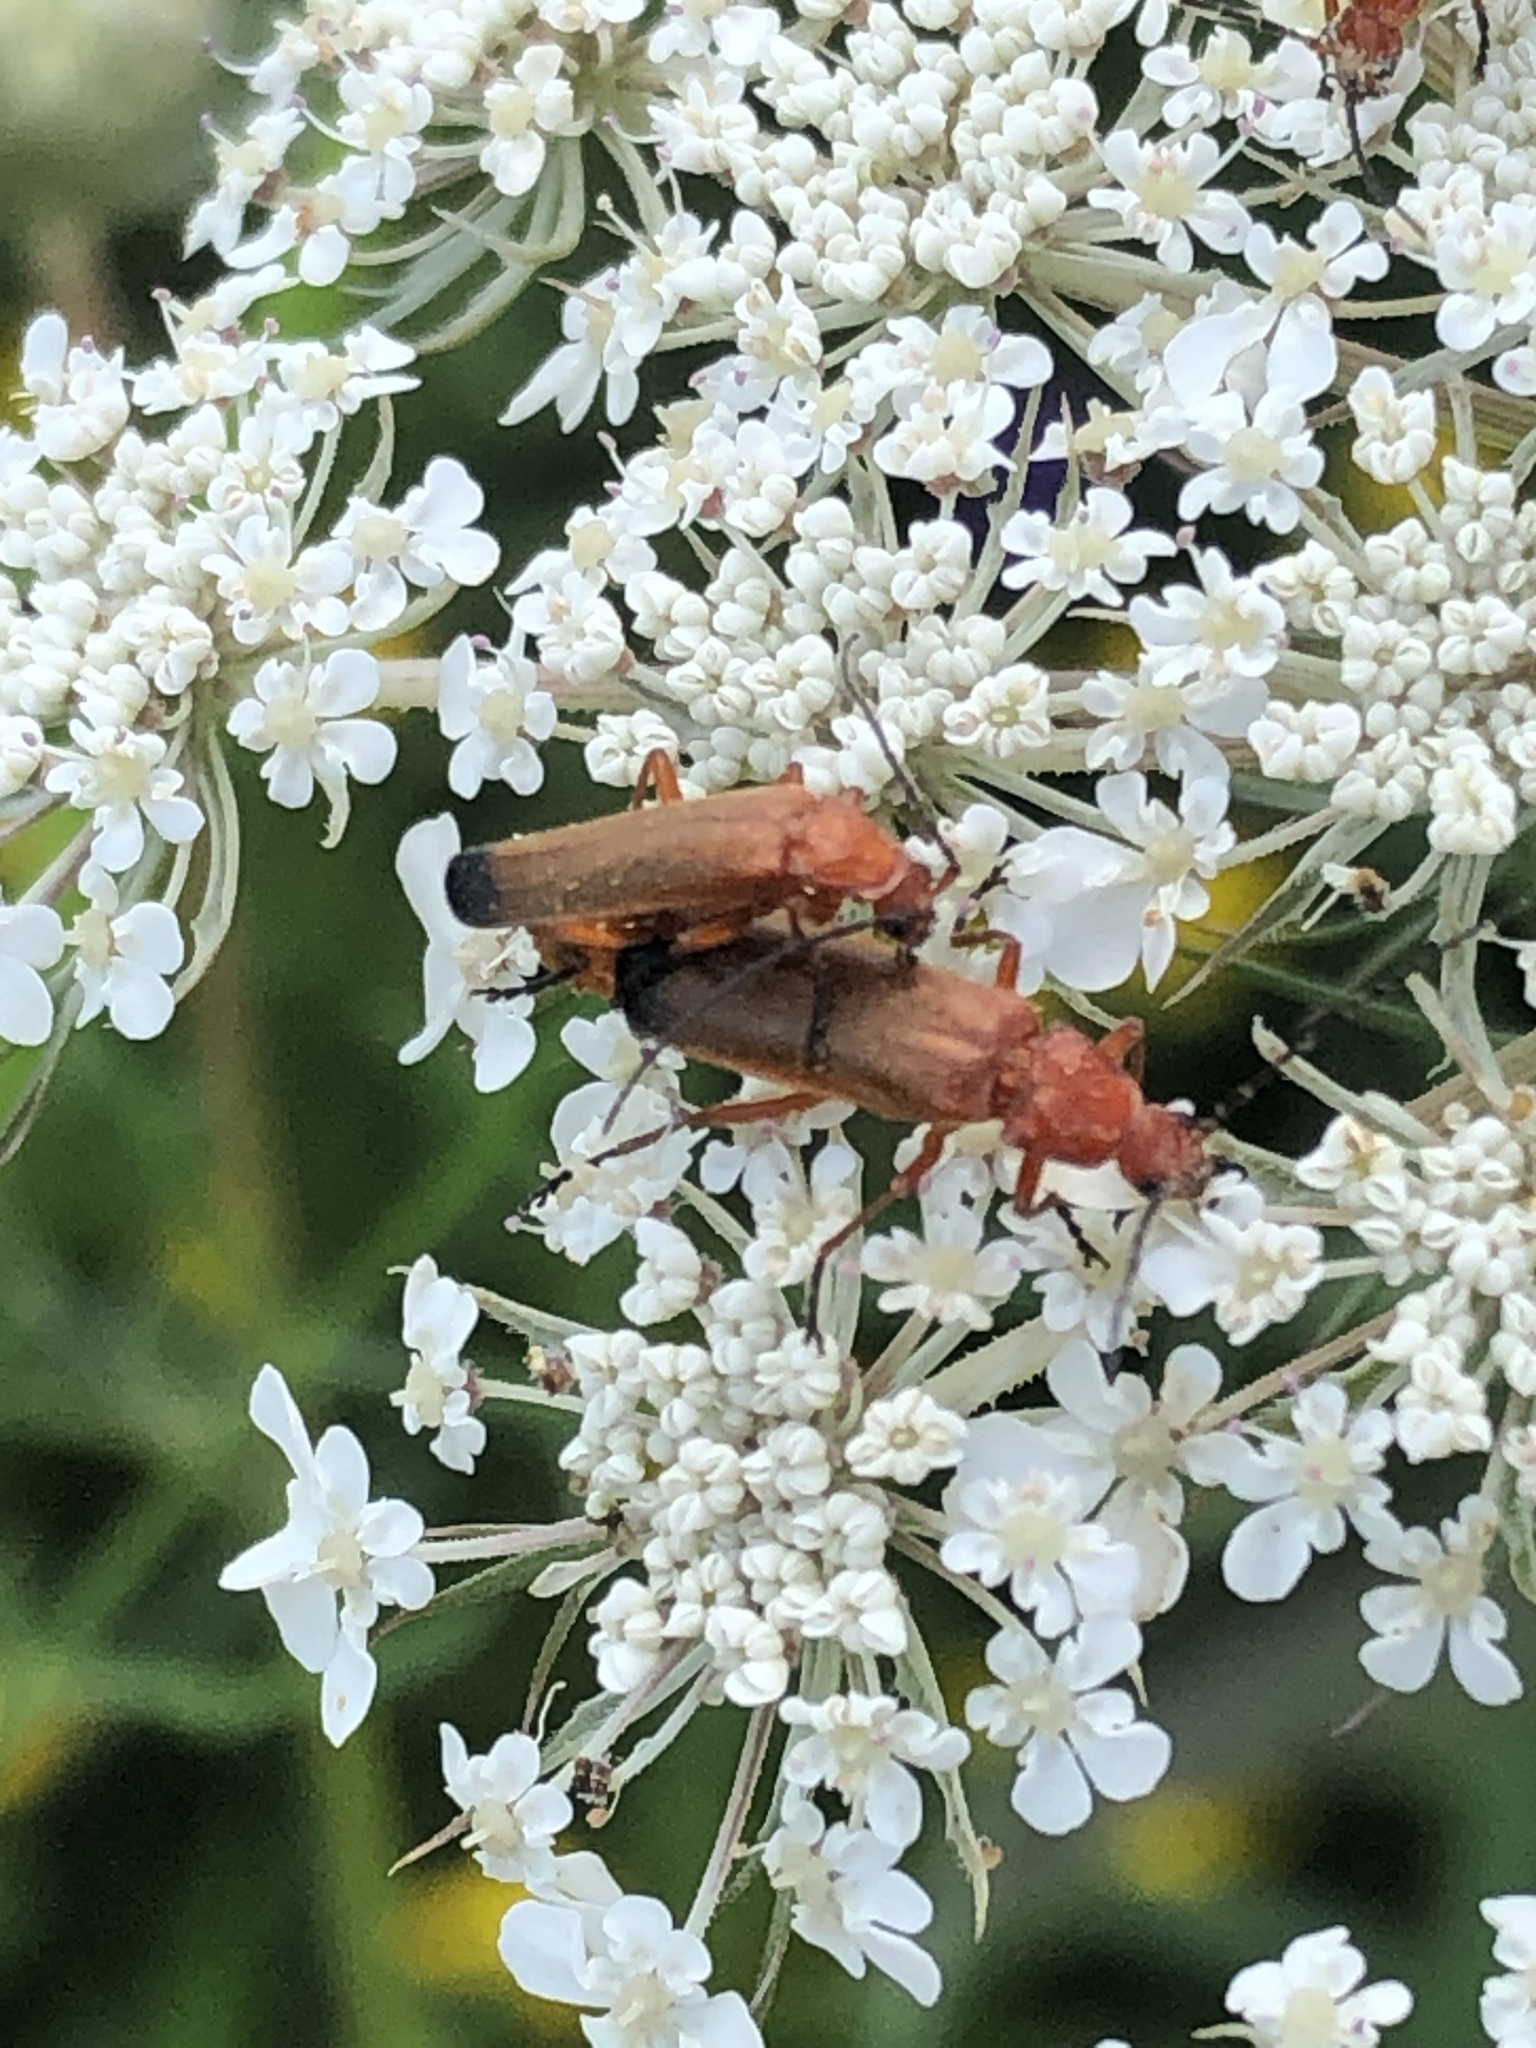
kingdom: Animalia
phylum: Arthropoda
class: Insecta
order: Coleoptera
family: Cantharidae
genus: Rhagonycha
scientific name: Rhagonycha fulva
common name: Common red soldier beetle
